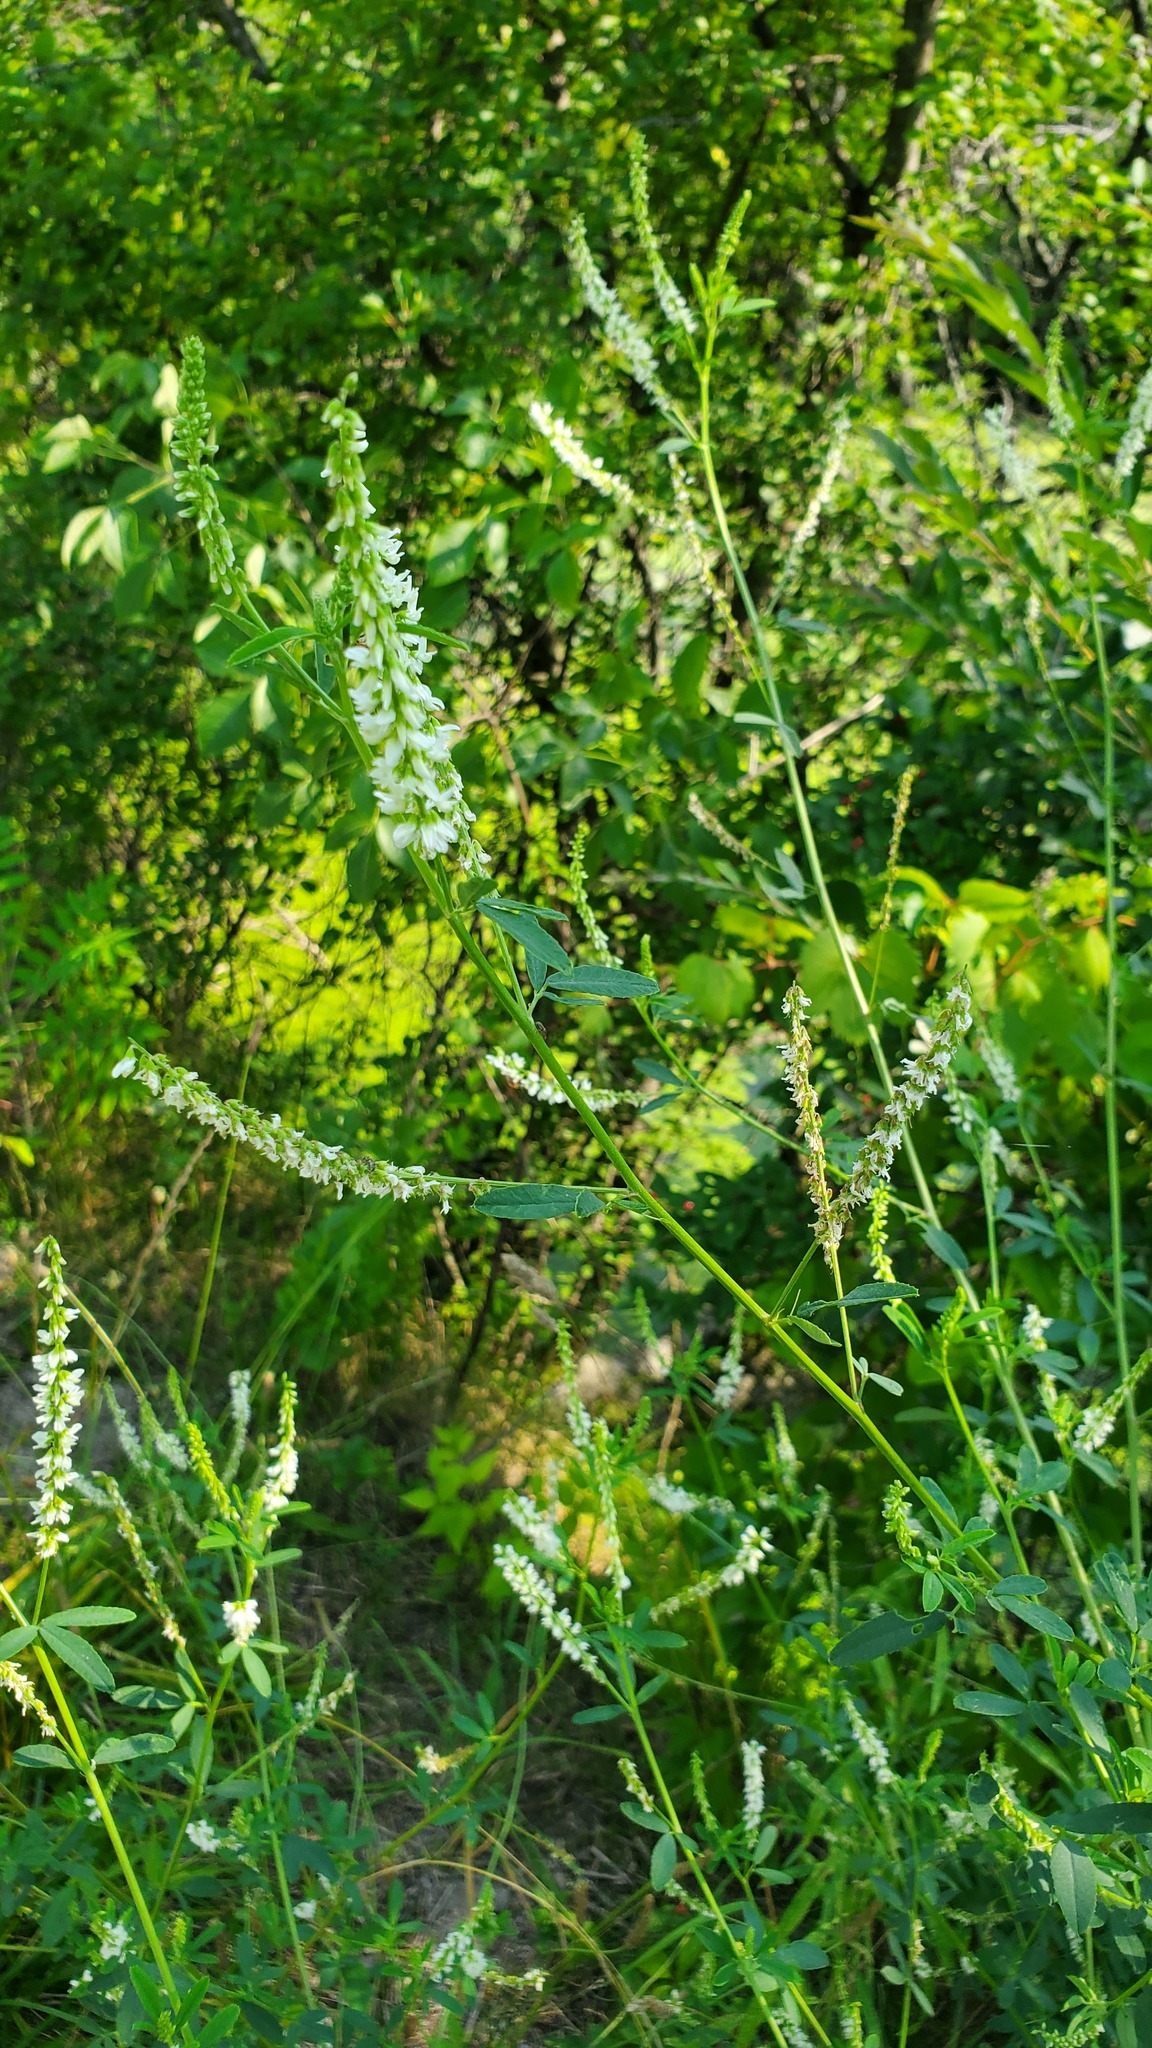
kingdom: Plantae
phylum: Tracheophyta
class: Magnoliopsida
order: Fabales
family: Fabaceae
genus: Melilotus
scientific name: Melilotus albus
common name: White melilot
